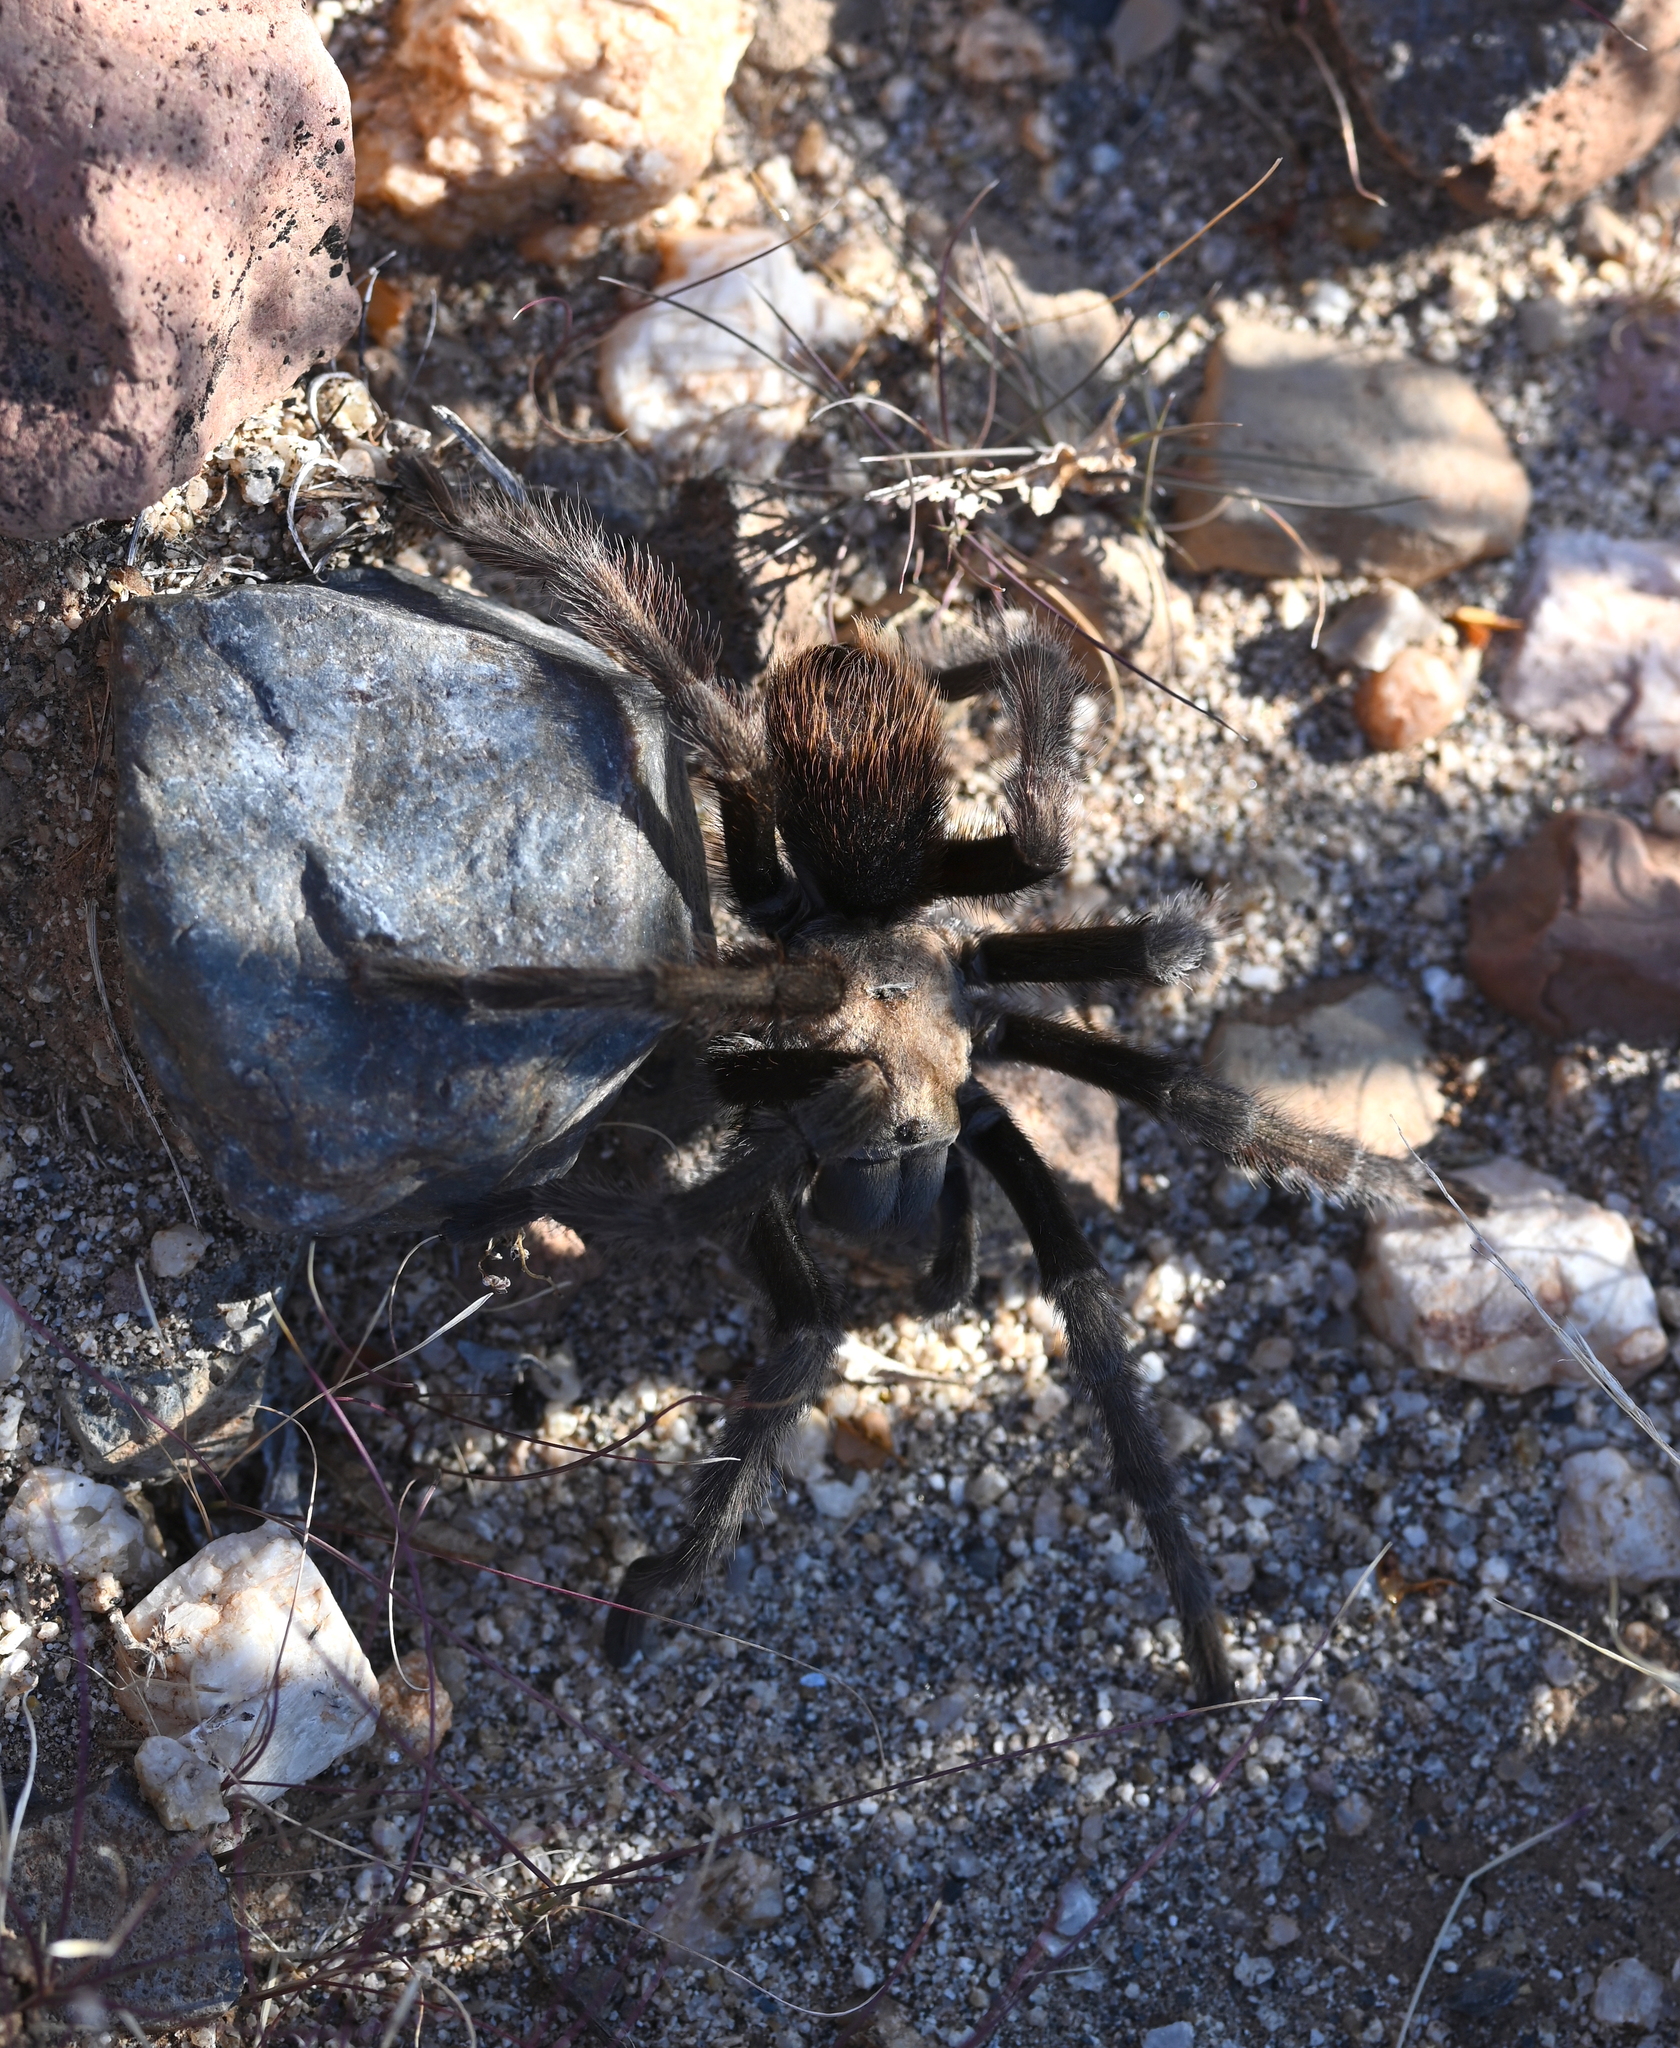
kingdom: Animalia
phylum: Arthropoda
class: Arachnida
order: Araneae
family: Theraphosidae
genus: Aphonopelma
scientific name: Aphonopelma eutylenum
